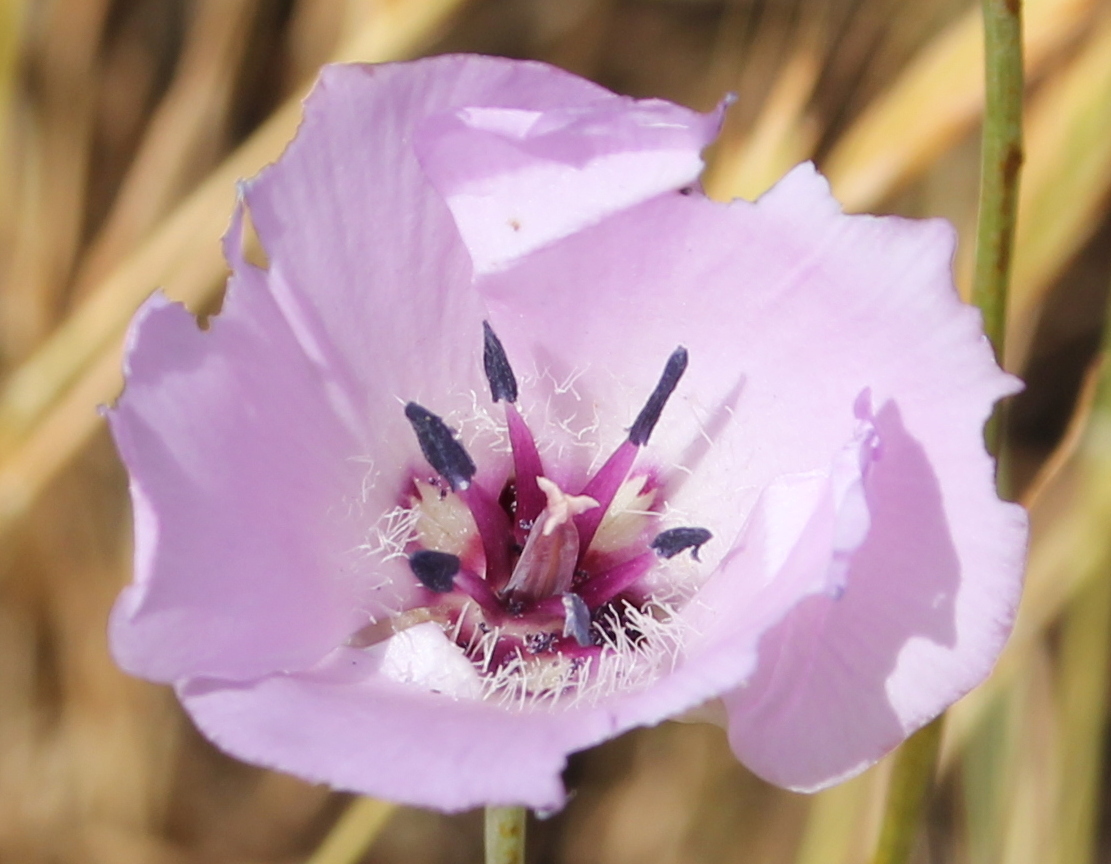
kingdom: Plantae
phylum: Tracheophyta
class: Liliopsida
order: Liliales
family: Liliaceae
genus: Calochortus
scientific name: Calochortus splendens
